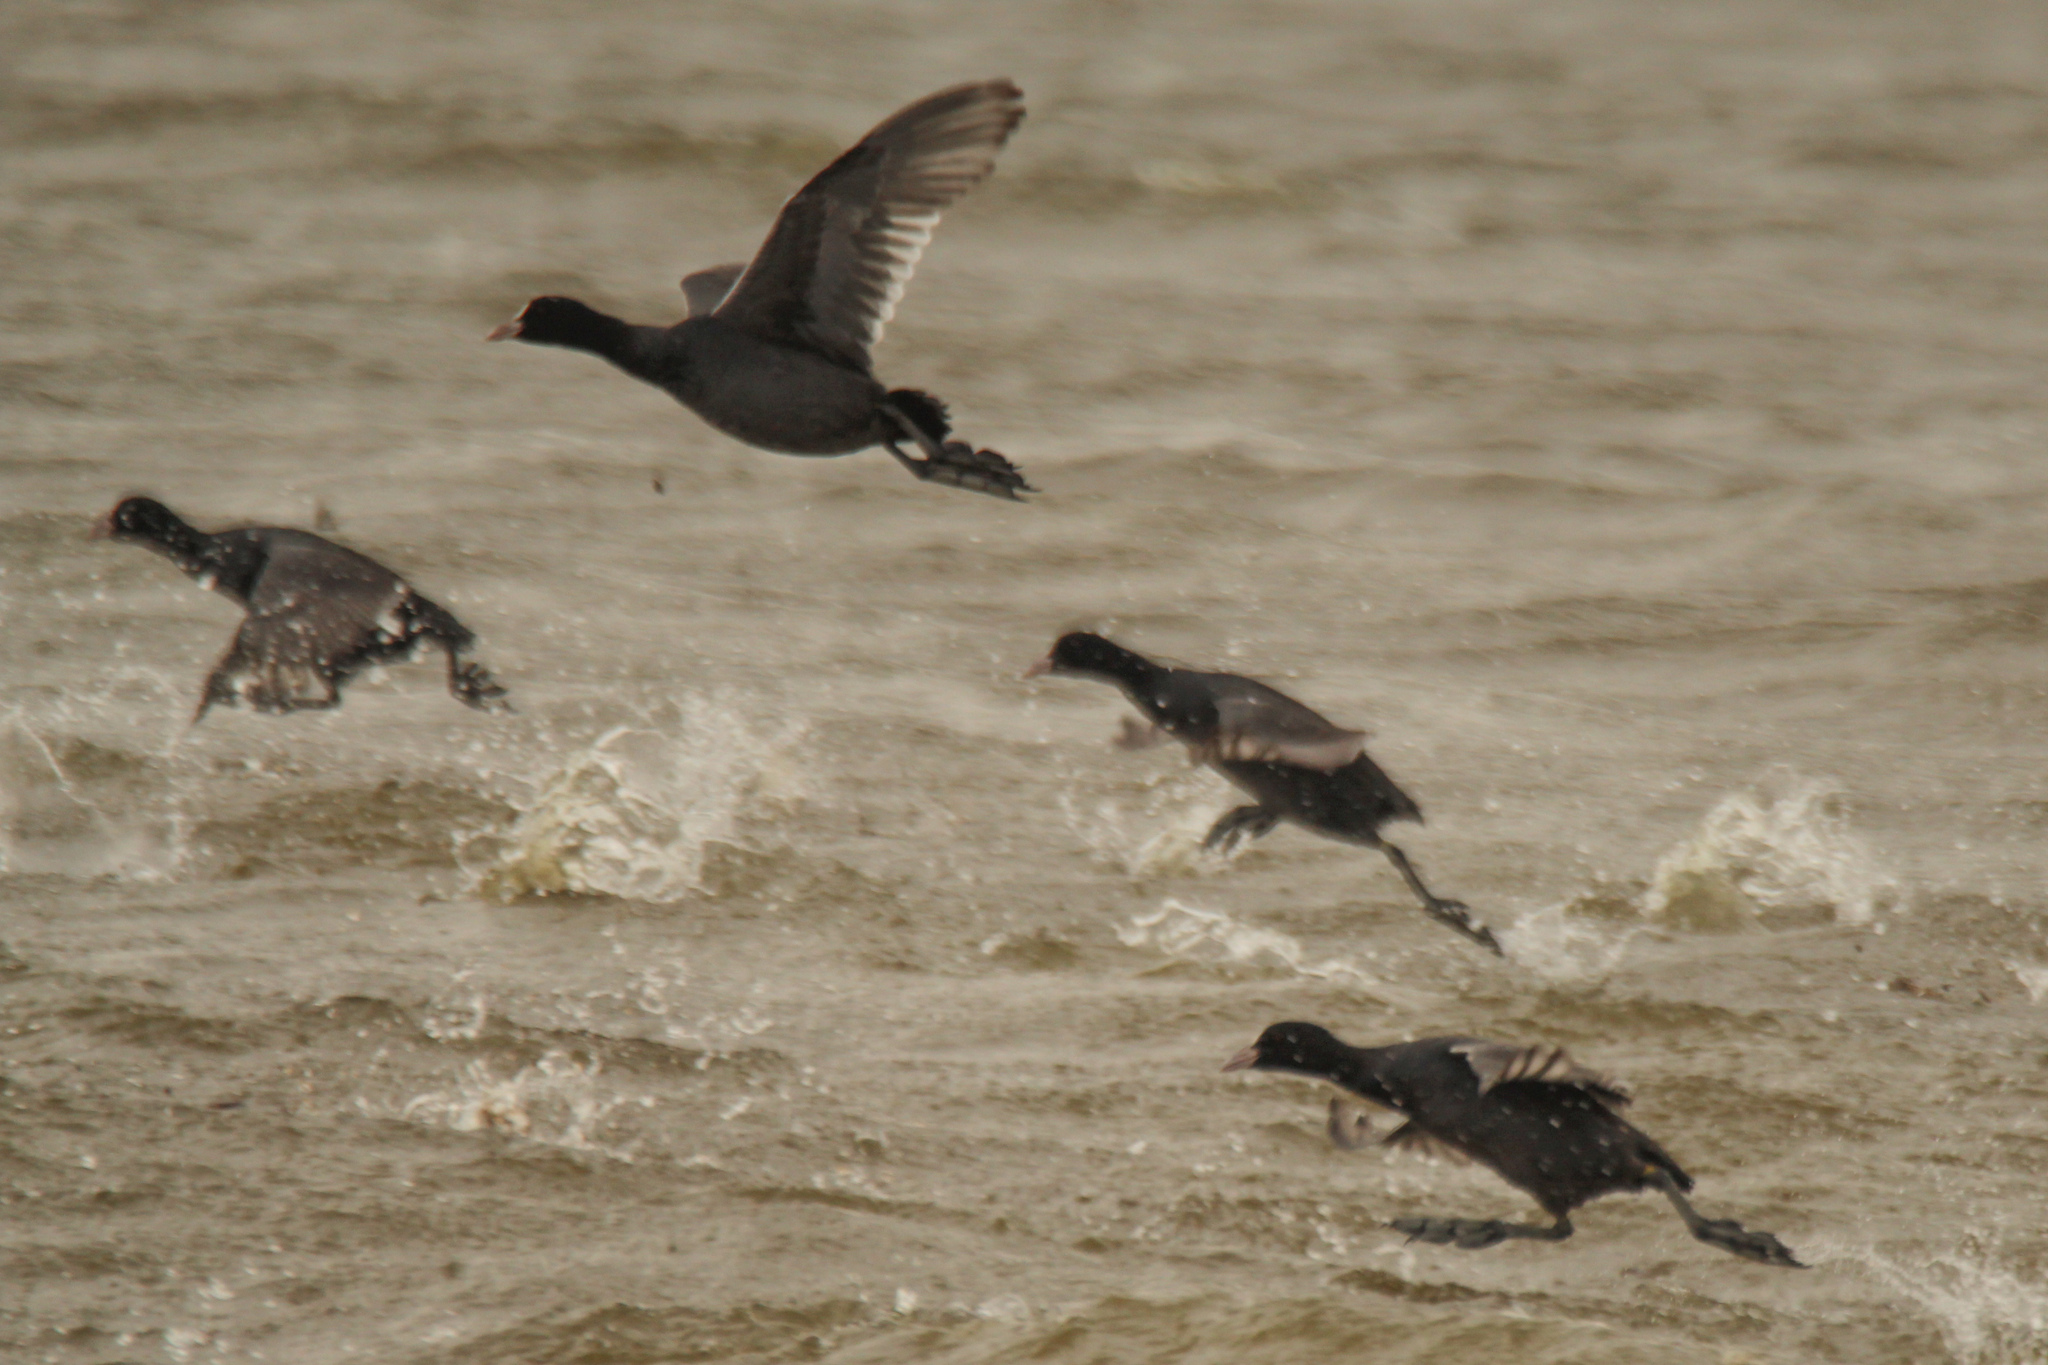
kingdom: Animalia
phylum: Chordata
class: Aves
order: Gruiformes
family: Rallidae
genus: Fulica
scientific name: Fulica atra
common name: Eurasian coot
